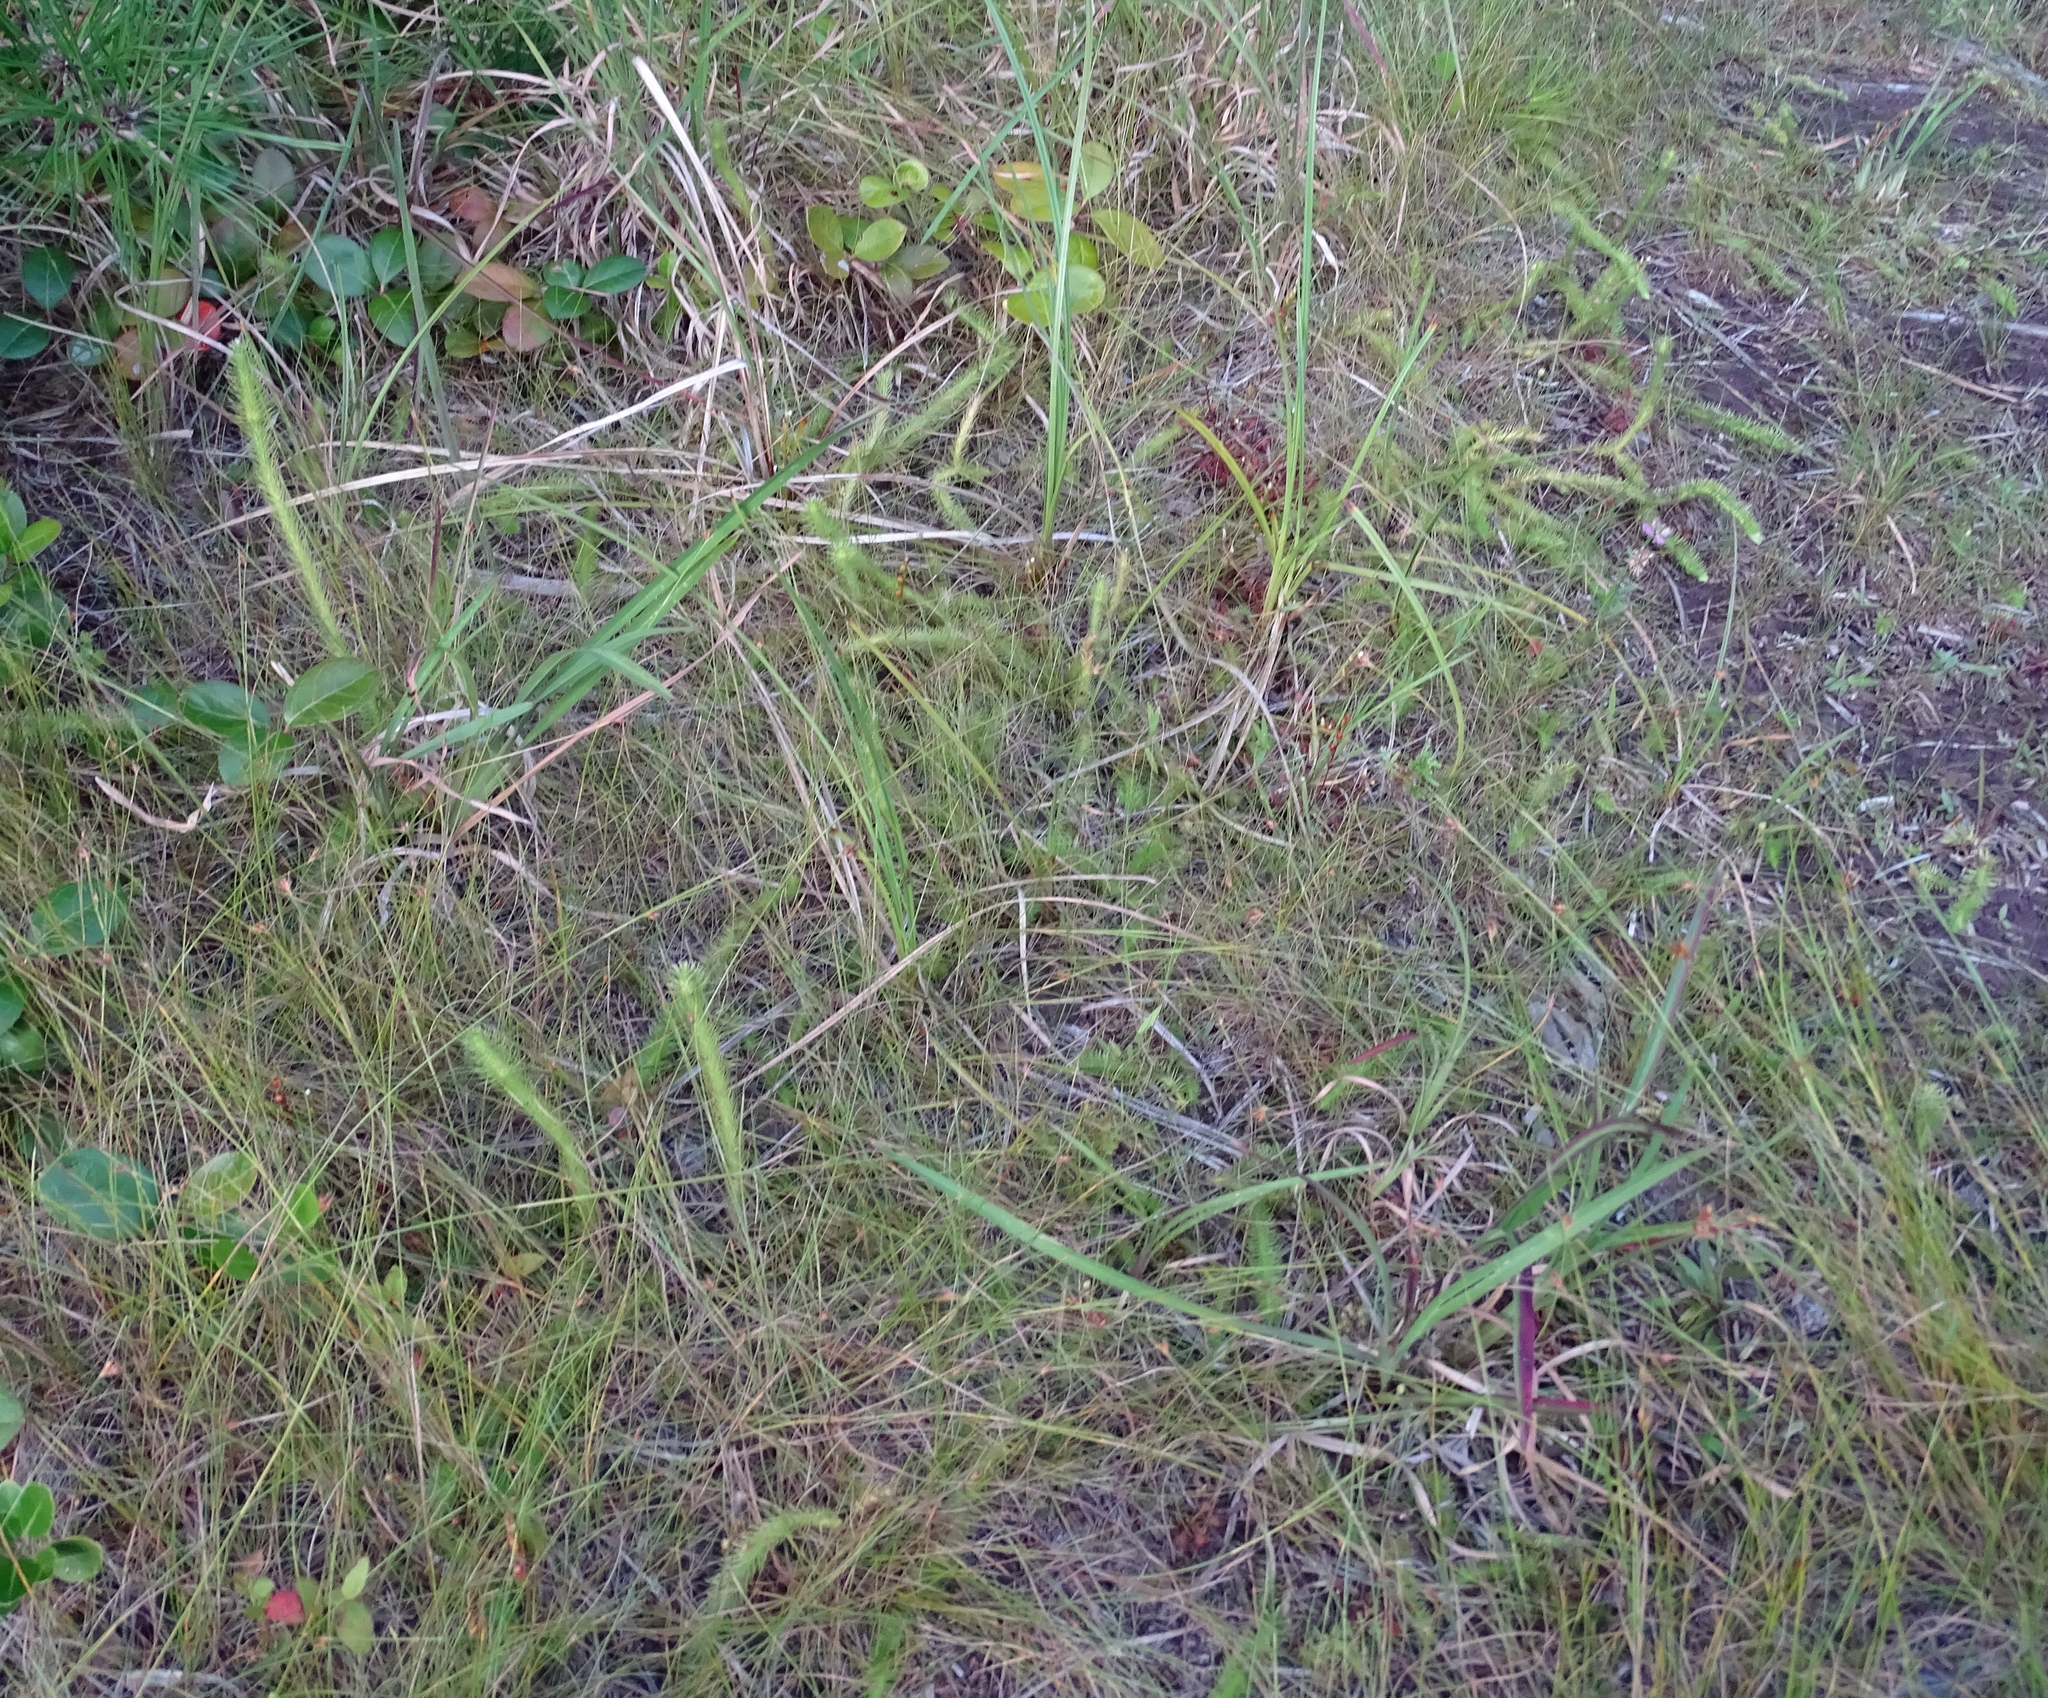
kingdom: Plantae
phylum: Tracheophyta
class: Lycopodiopsida
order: Lycopodiales
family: Lycopodiaceae
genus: Lycopodiella
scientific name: Lycopodiella alopecuroides
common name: Foxtail clubmoss
